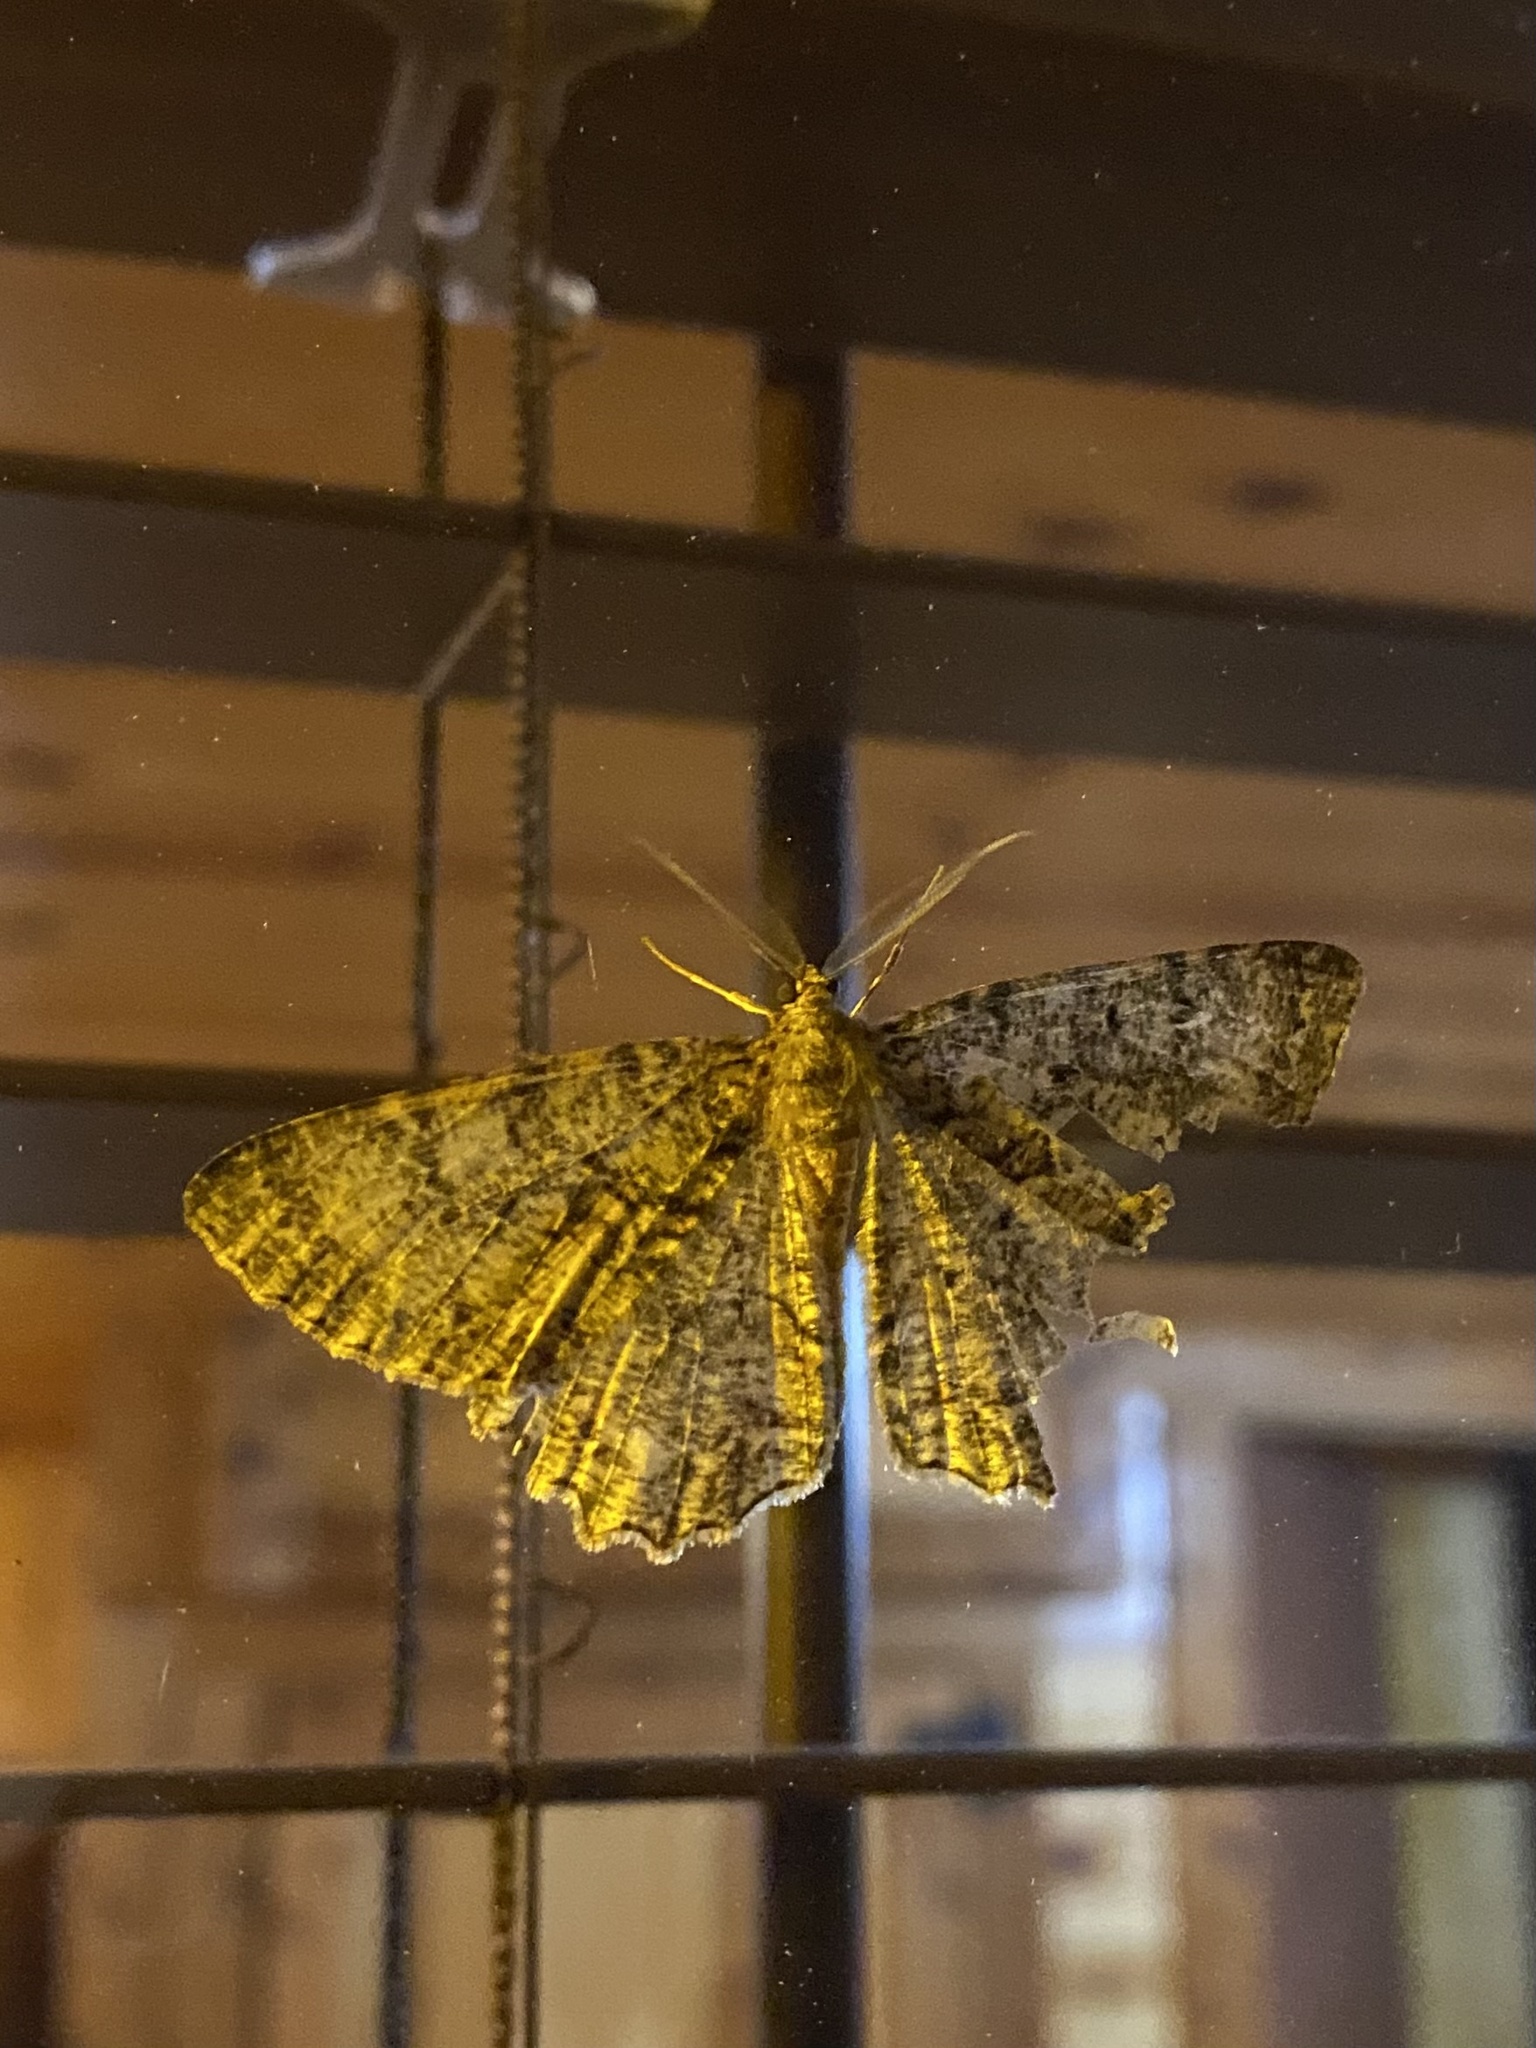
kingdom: Animalia
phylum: Arthropoda
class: Insecta
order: Lepidoptera
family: Geometridae
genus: Epimecis
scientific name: Epimecis hortaria
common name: Tulip-tree beauty
